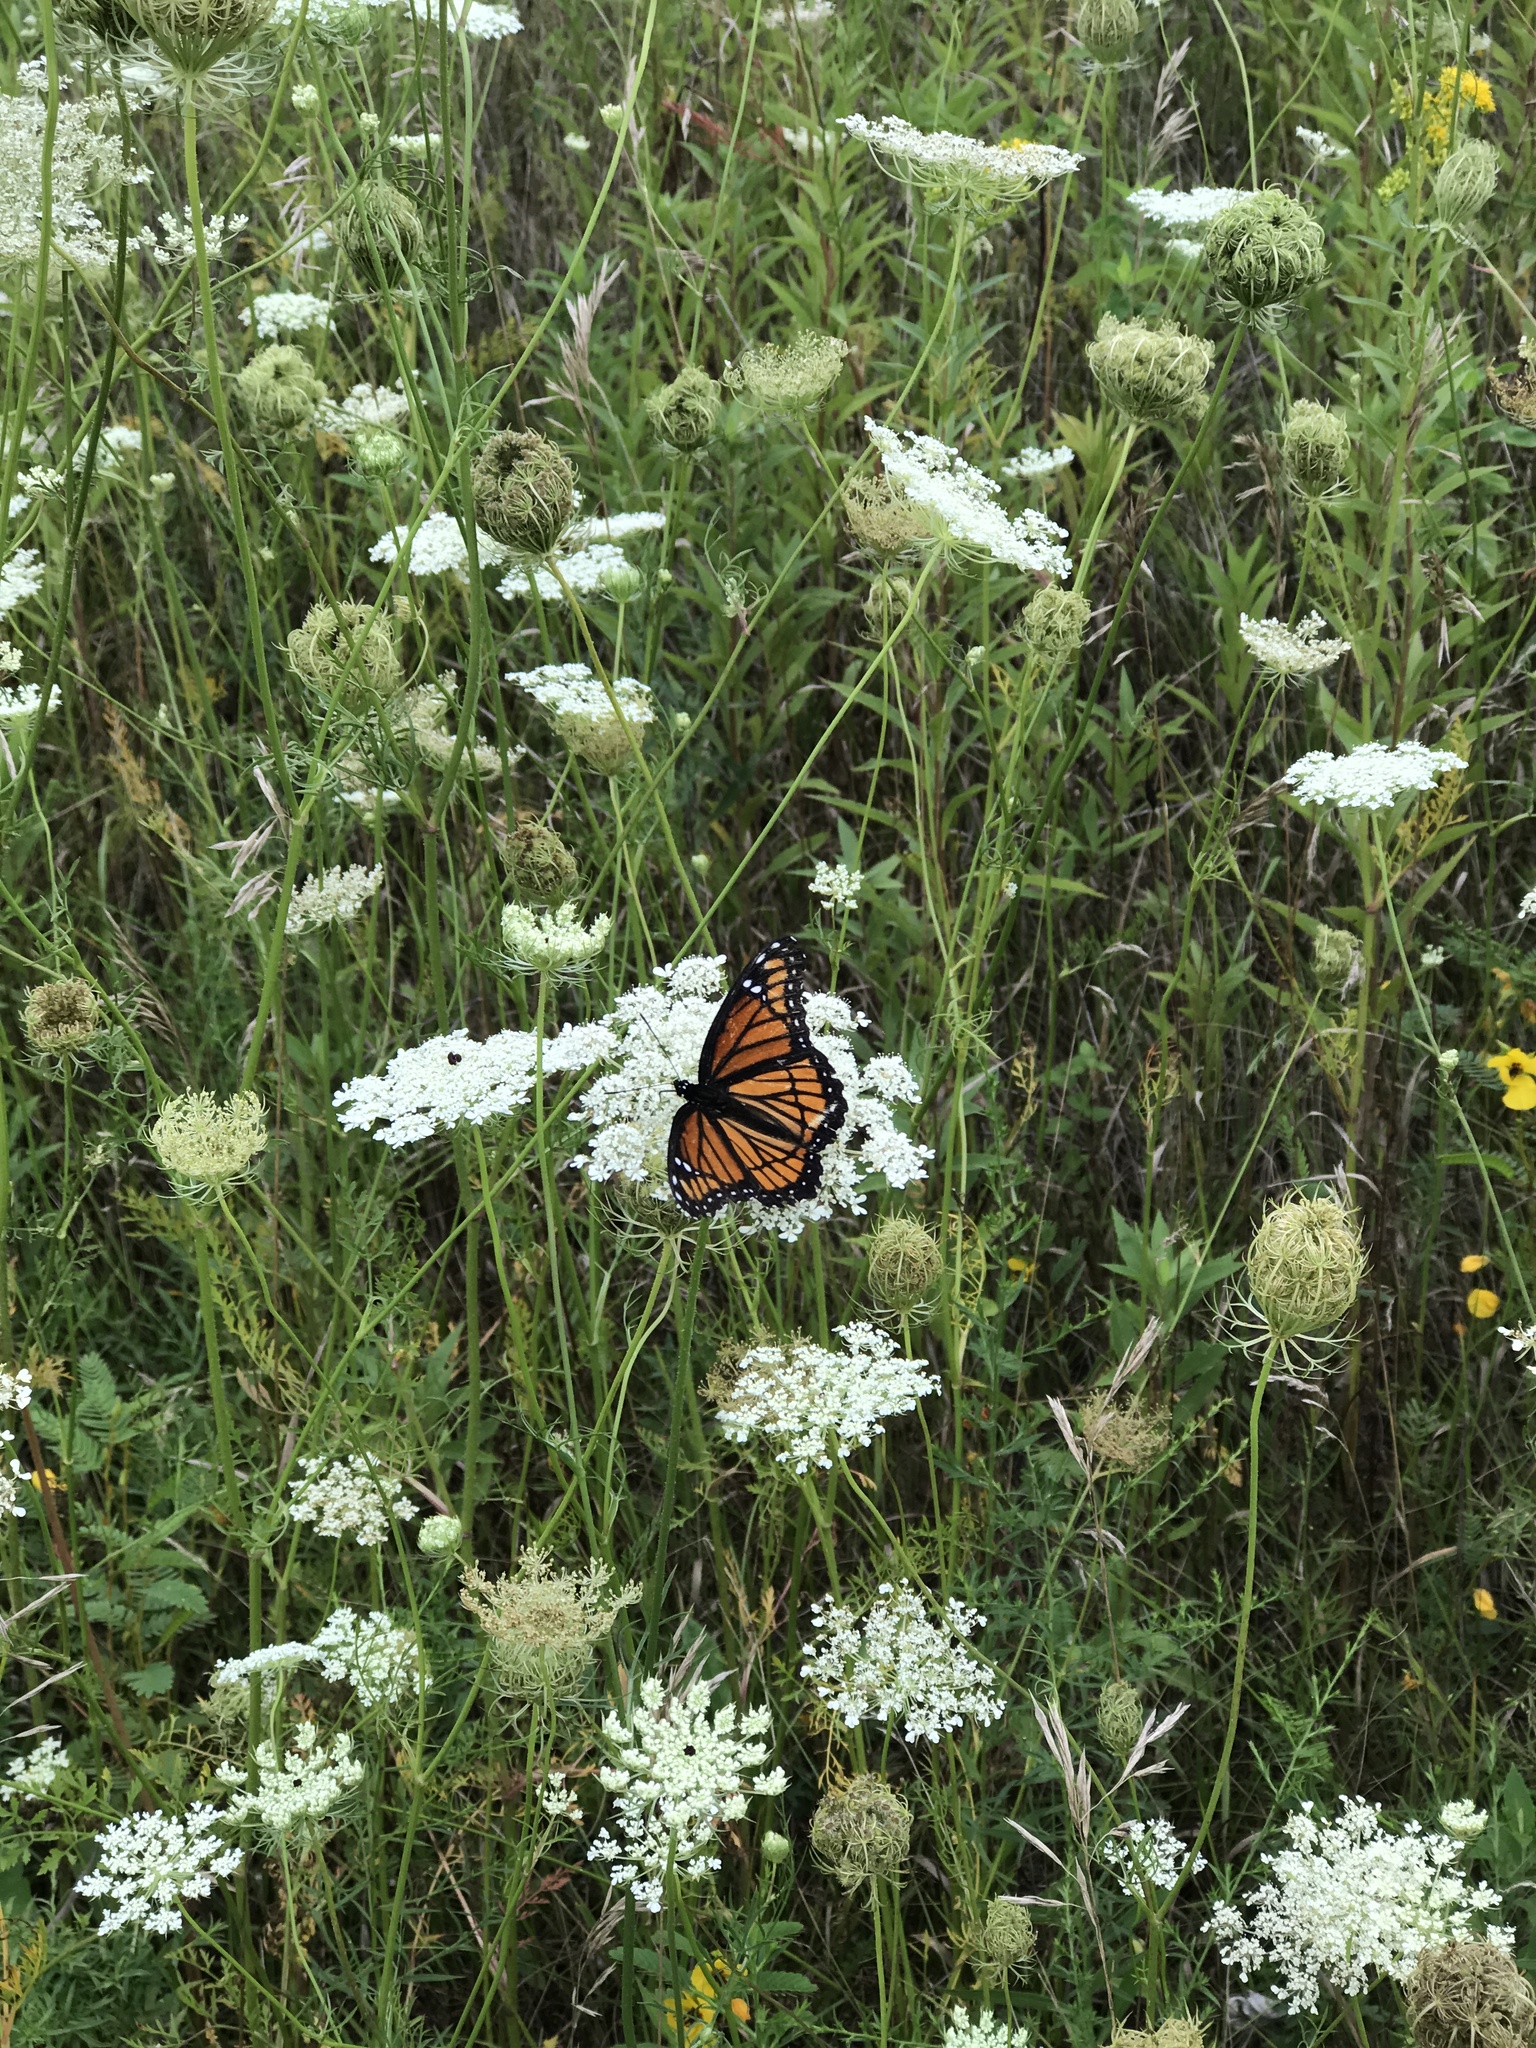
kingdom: Animalia
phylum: Arthropoda
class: Insecta
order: Lepidoptera
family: Nymphalidae
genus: Limenitis
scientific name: Limenitis archippus
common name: Viceroy
